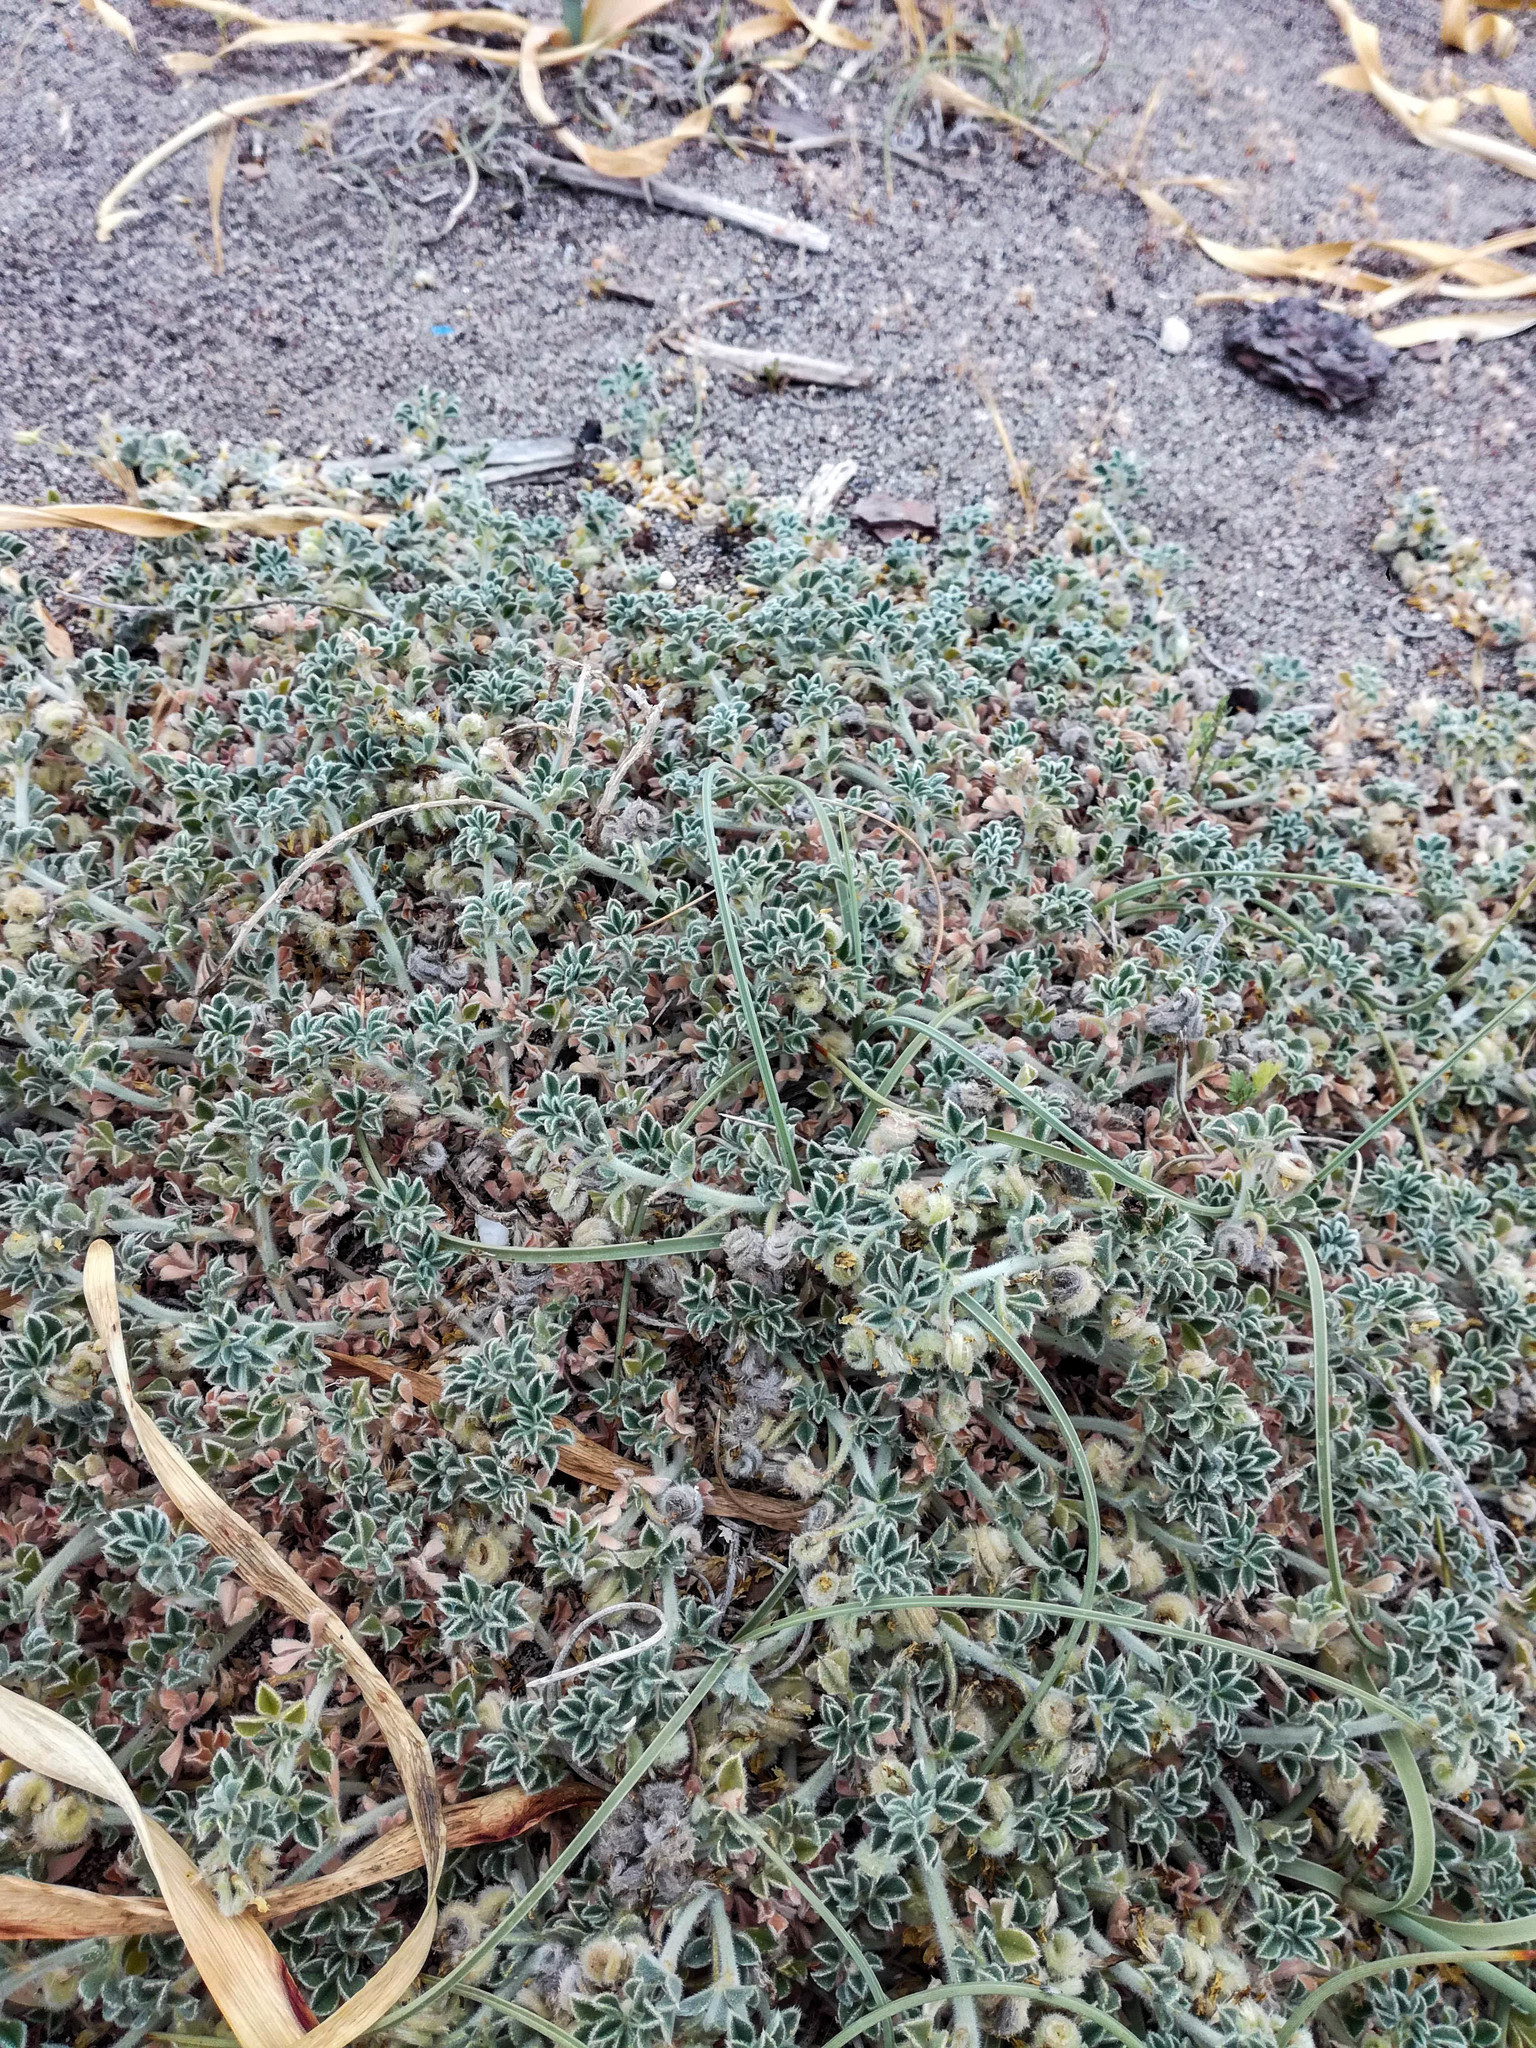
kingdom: Plantae
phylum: Tracheophyta
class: Magnoliopsida
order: Fabales
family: Fabaceae
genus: Medicago
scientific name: Medicago marina
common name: Sea medick
